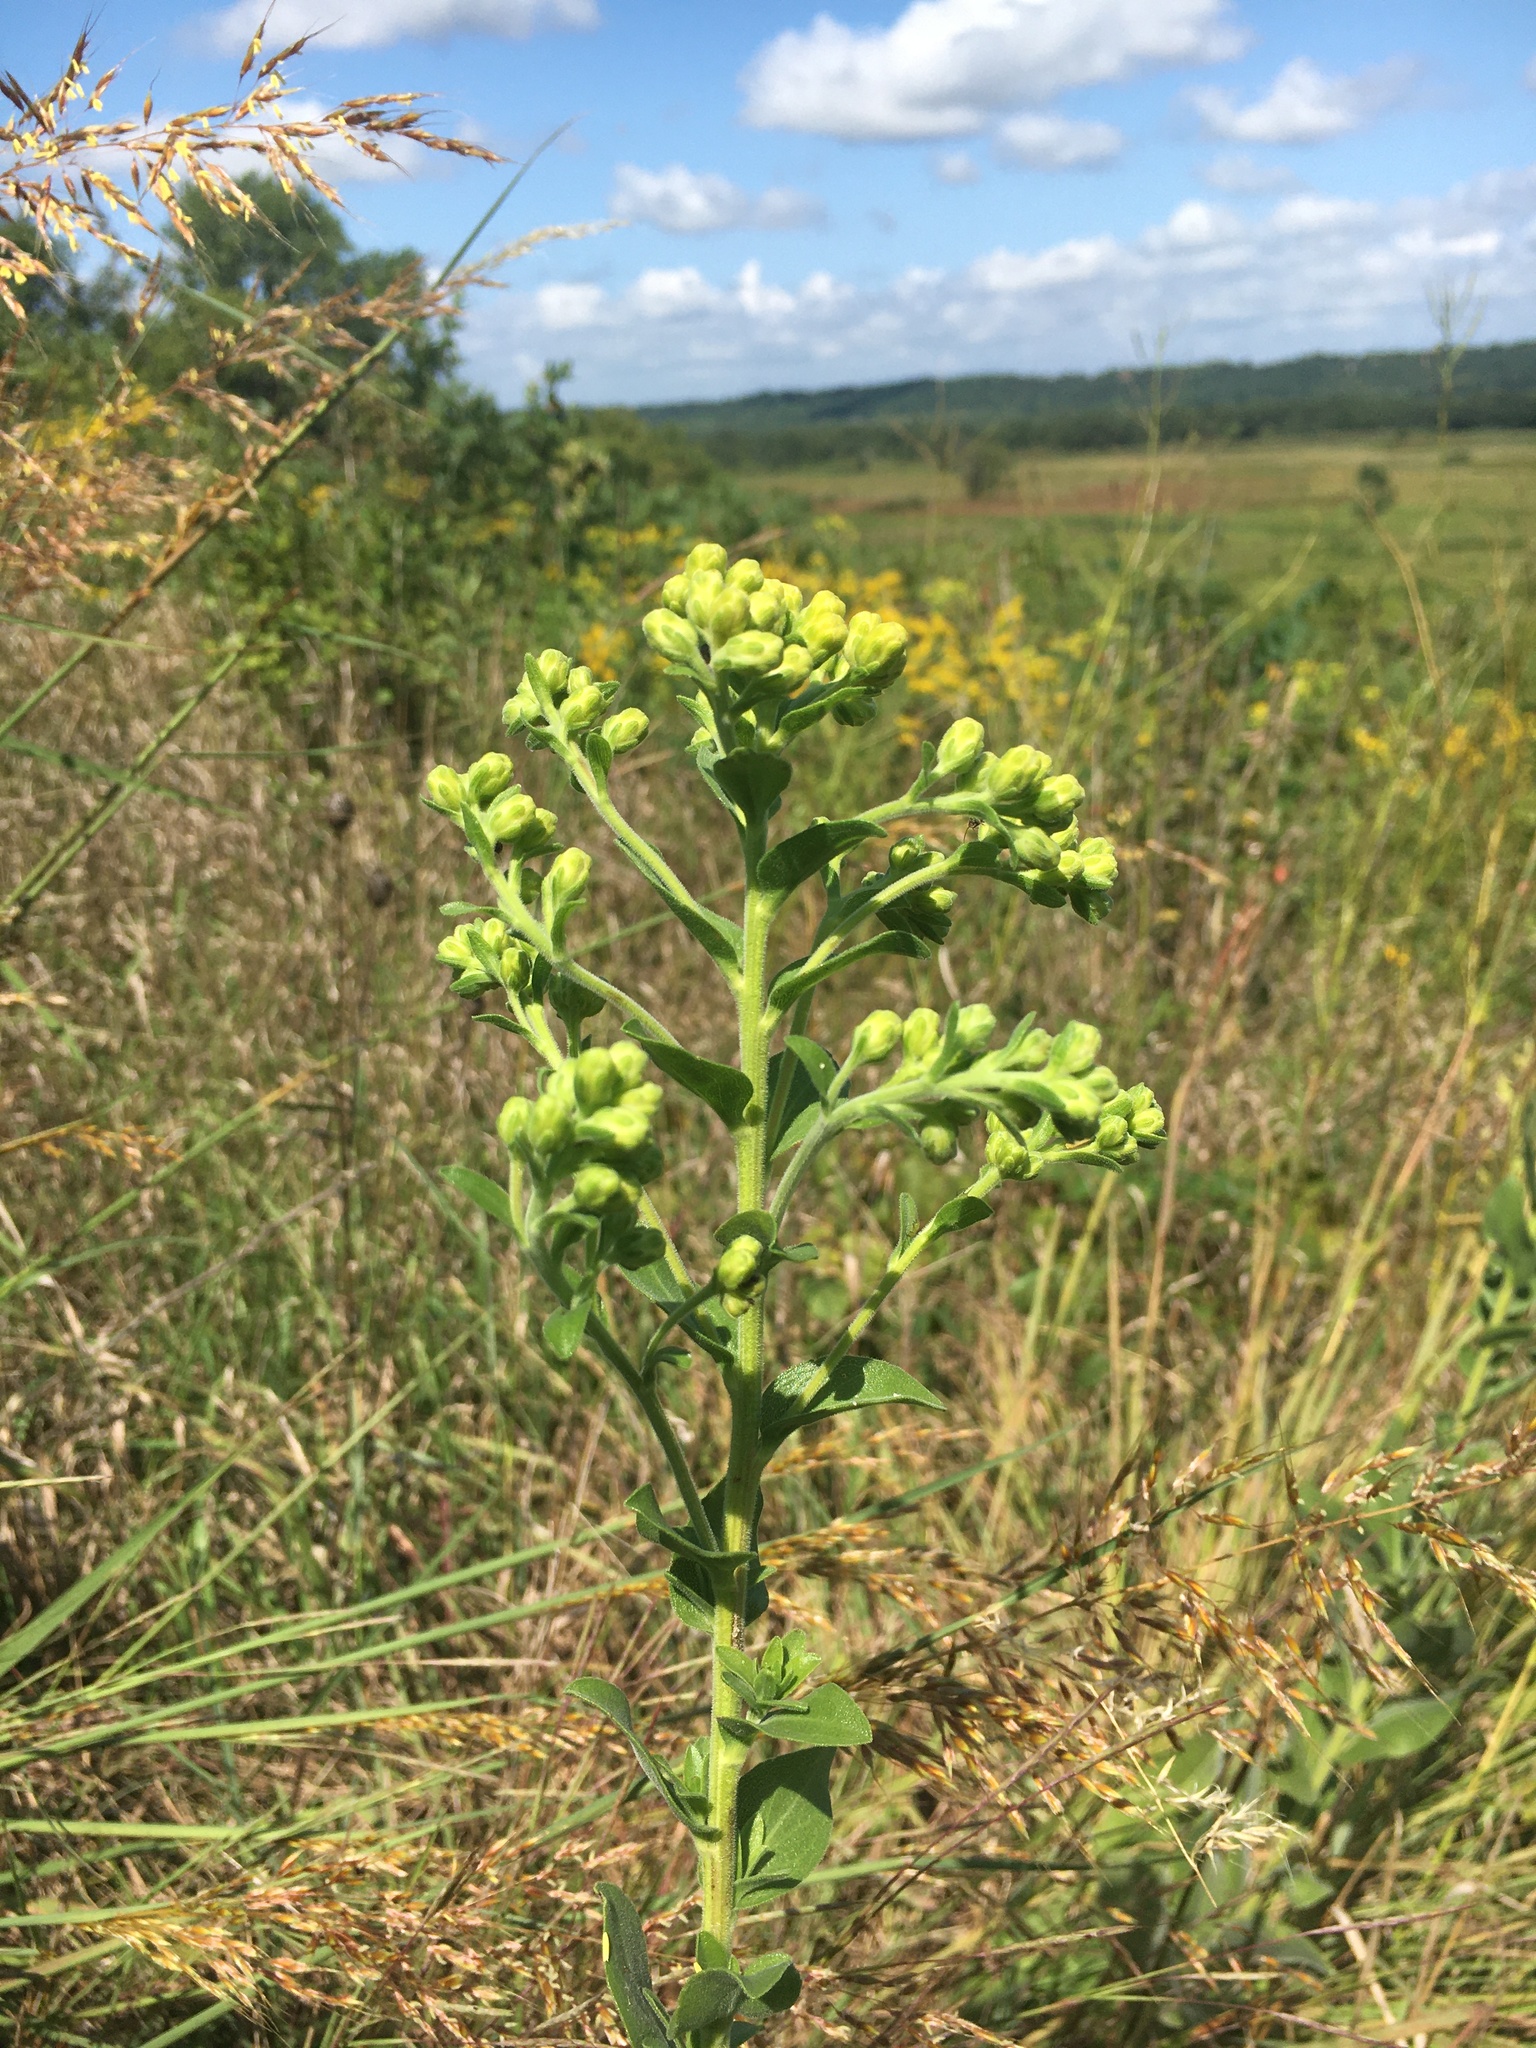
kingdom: Plantae
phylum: Tracheophyta
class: Magnoliopsida
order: Asterales
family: Asteraceae
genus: Solidago
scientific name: Solidago rigida
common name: Rigid goldenrod
